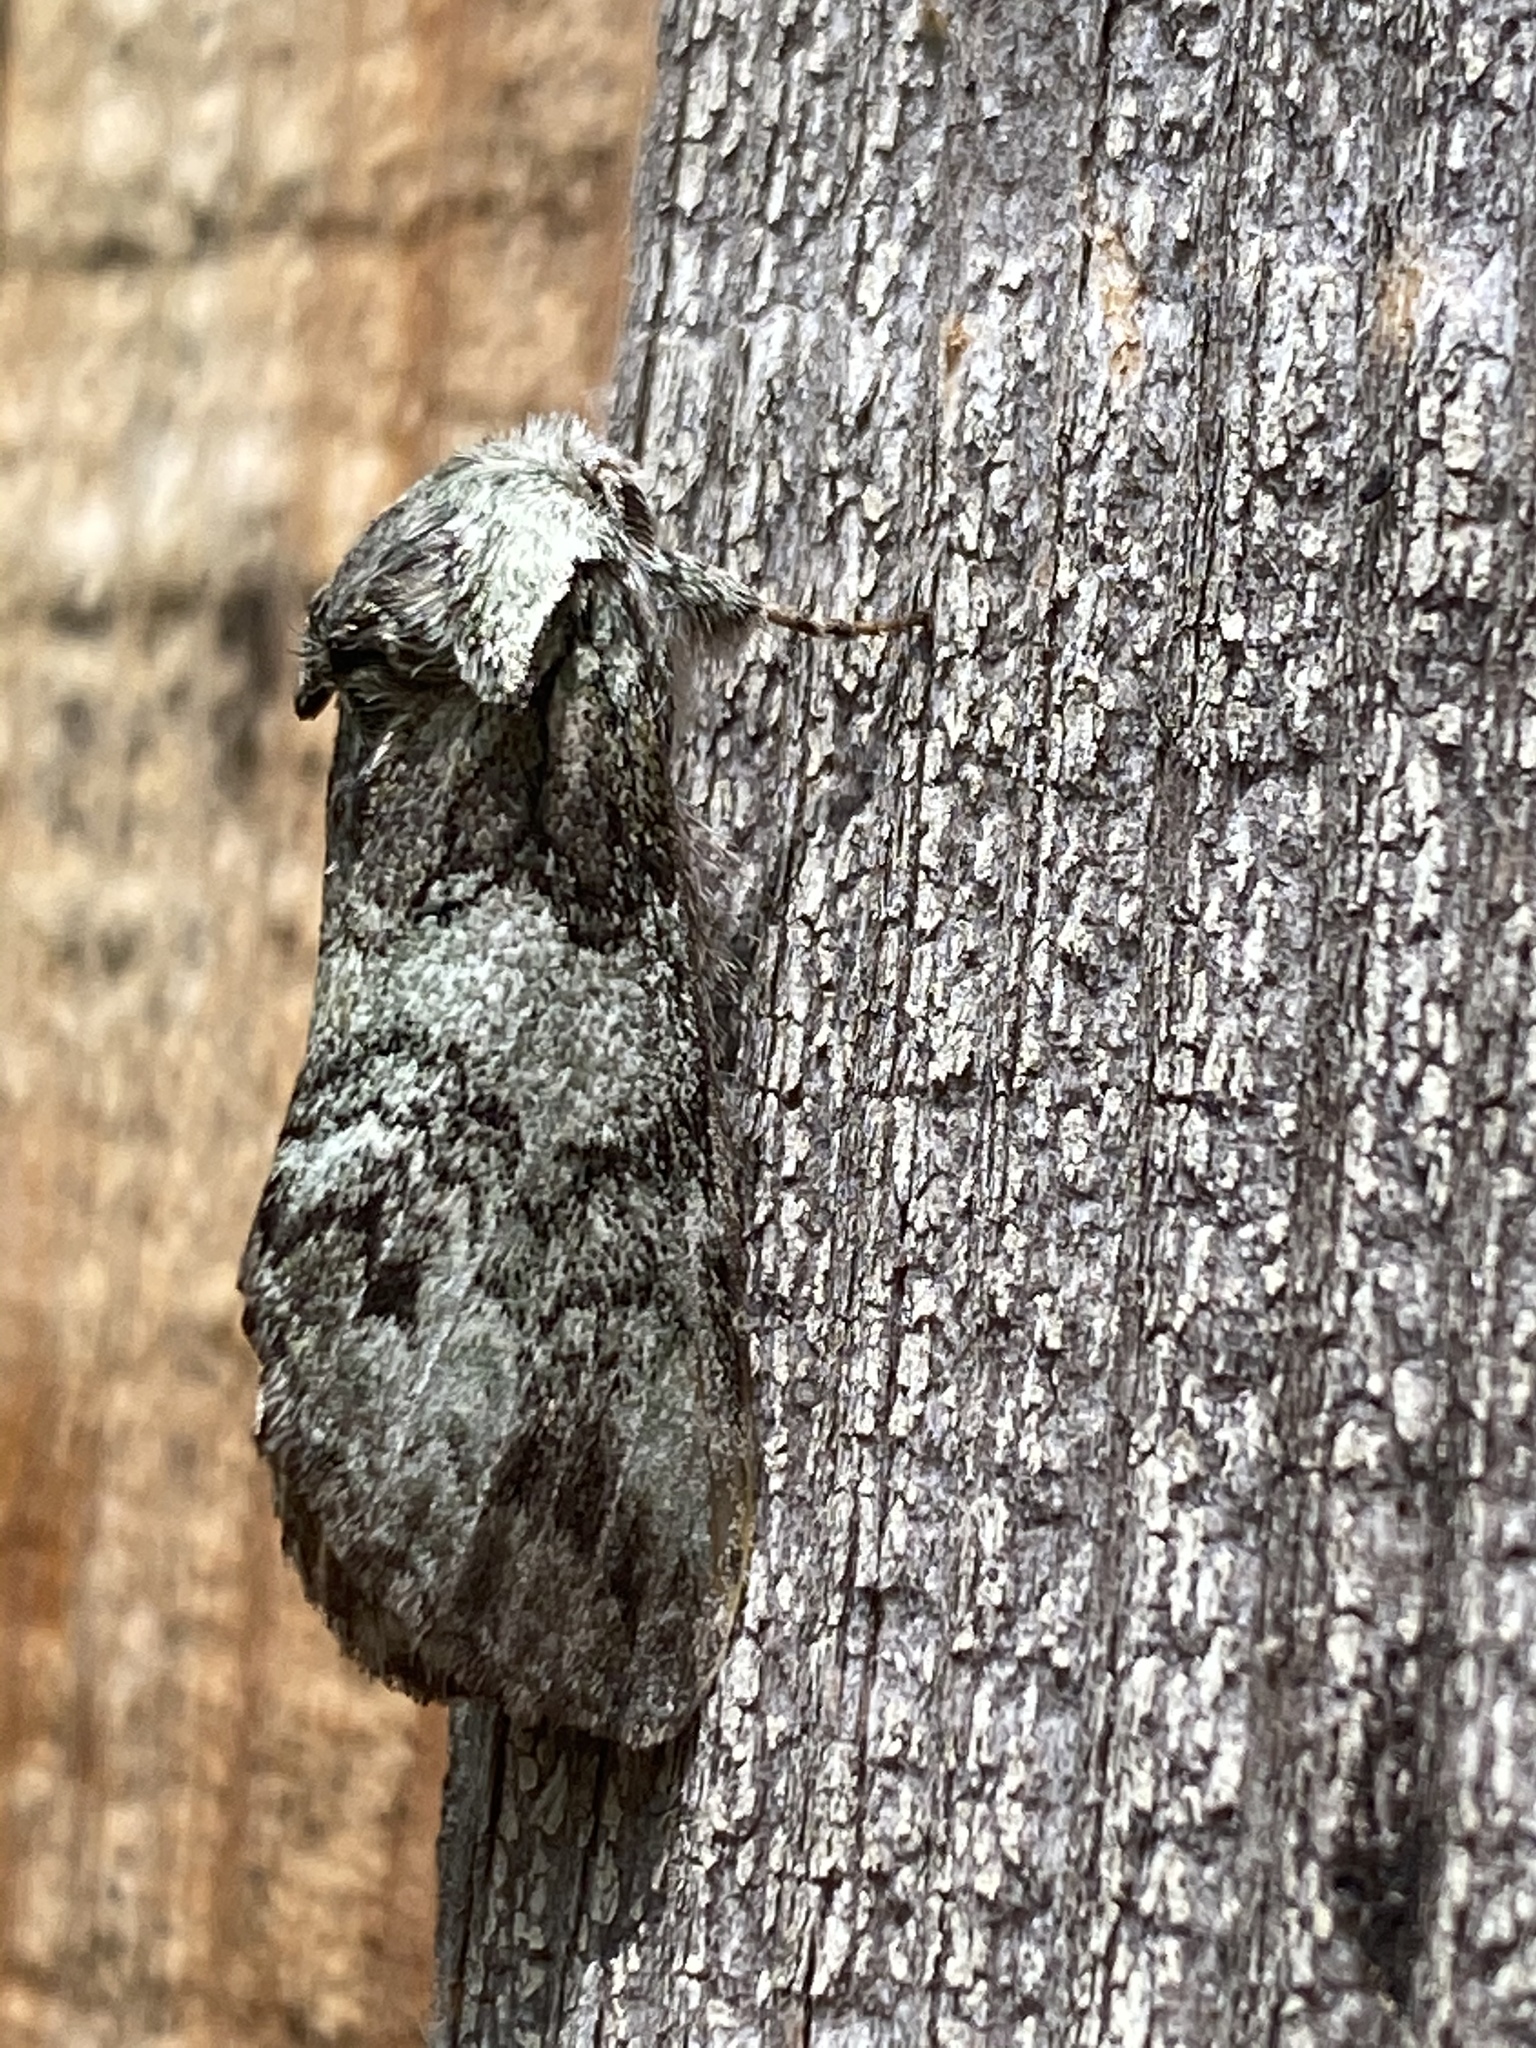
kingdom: Animalia
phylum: Arthropoda
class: Insecta
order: Lepidoptera
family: Notodontidae
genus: Macrurocampa
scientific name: Macrurocampa marthesia
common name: Mottled prominent
